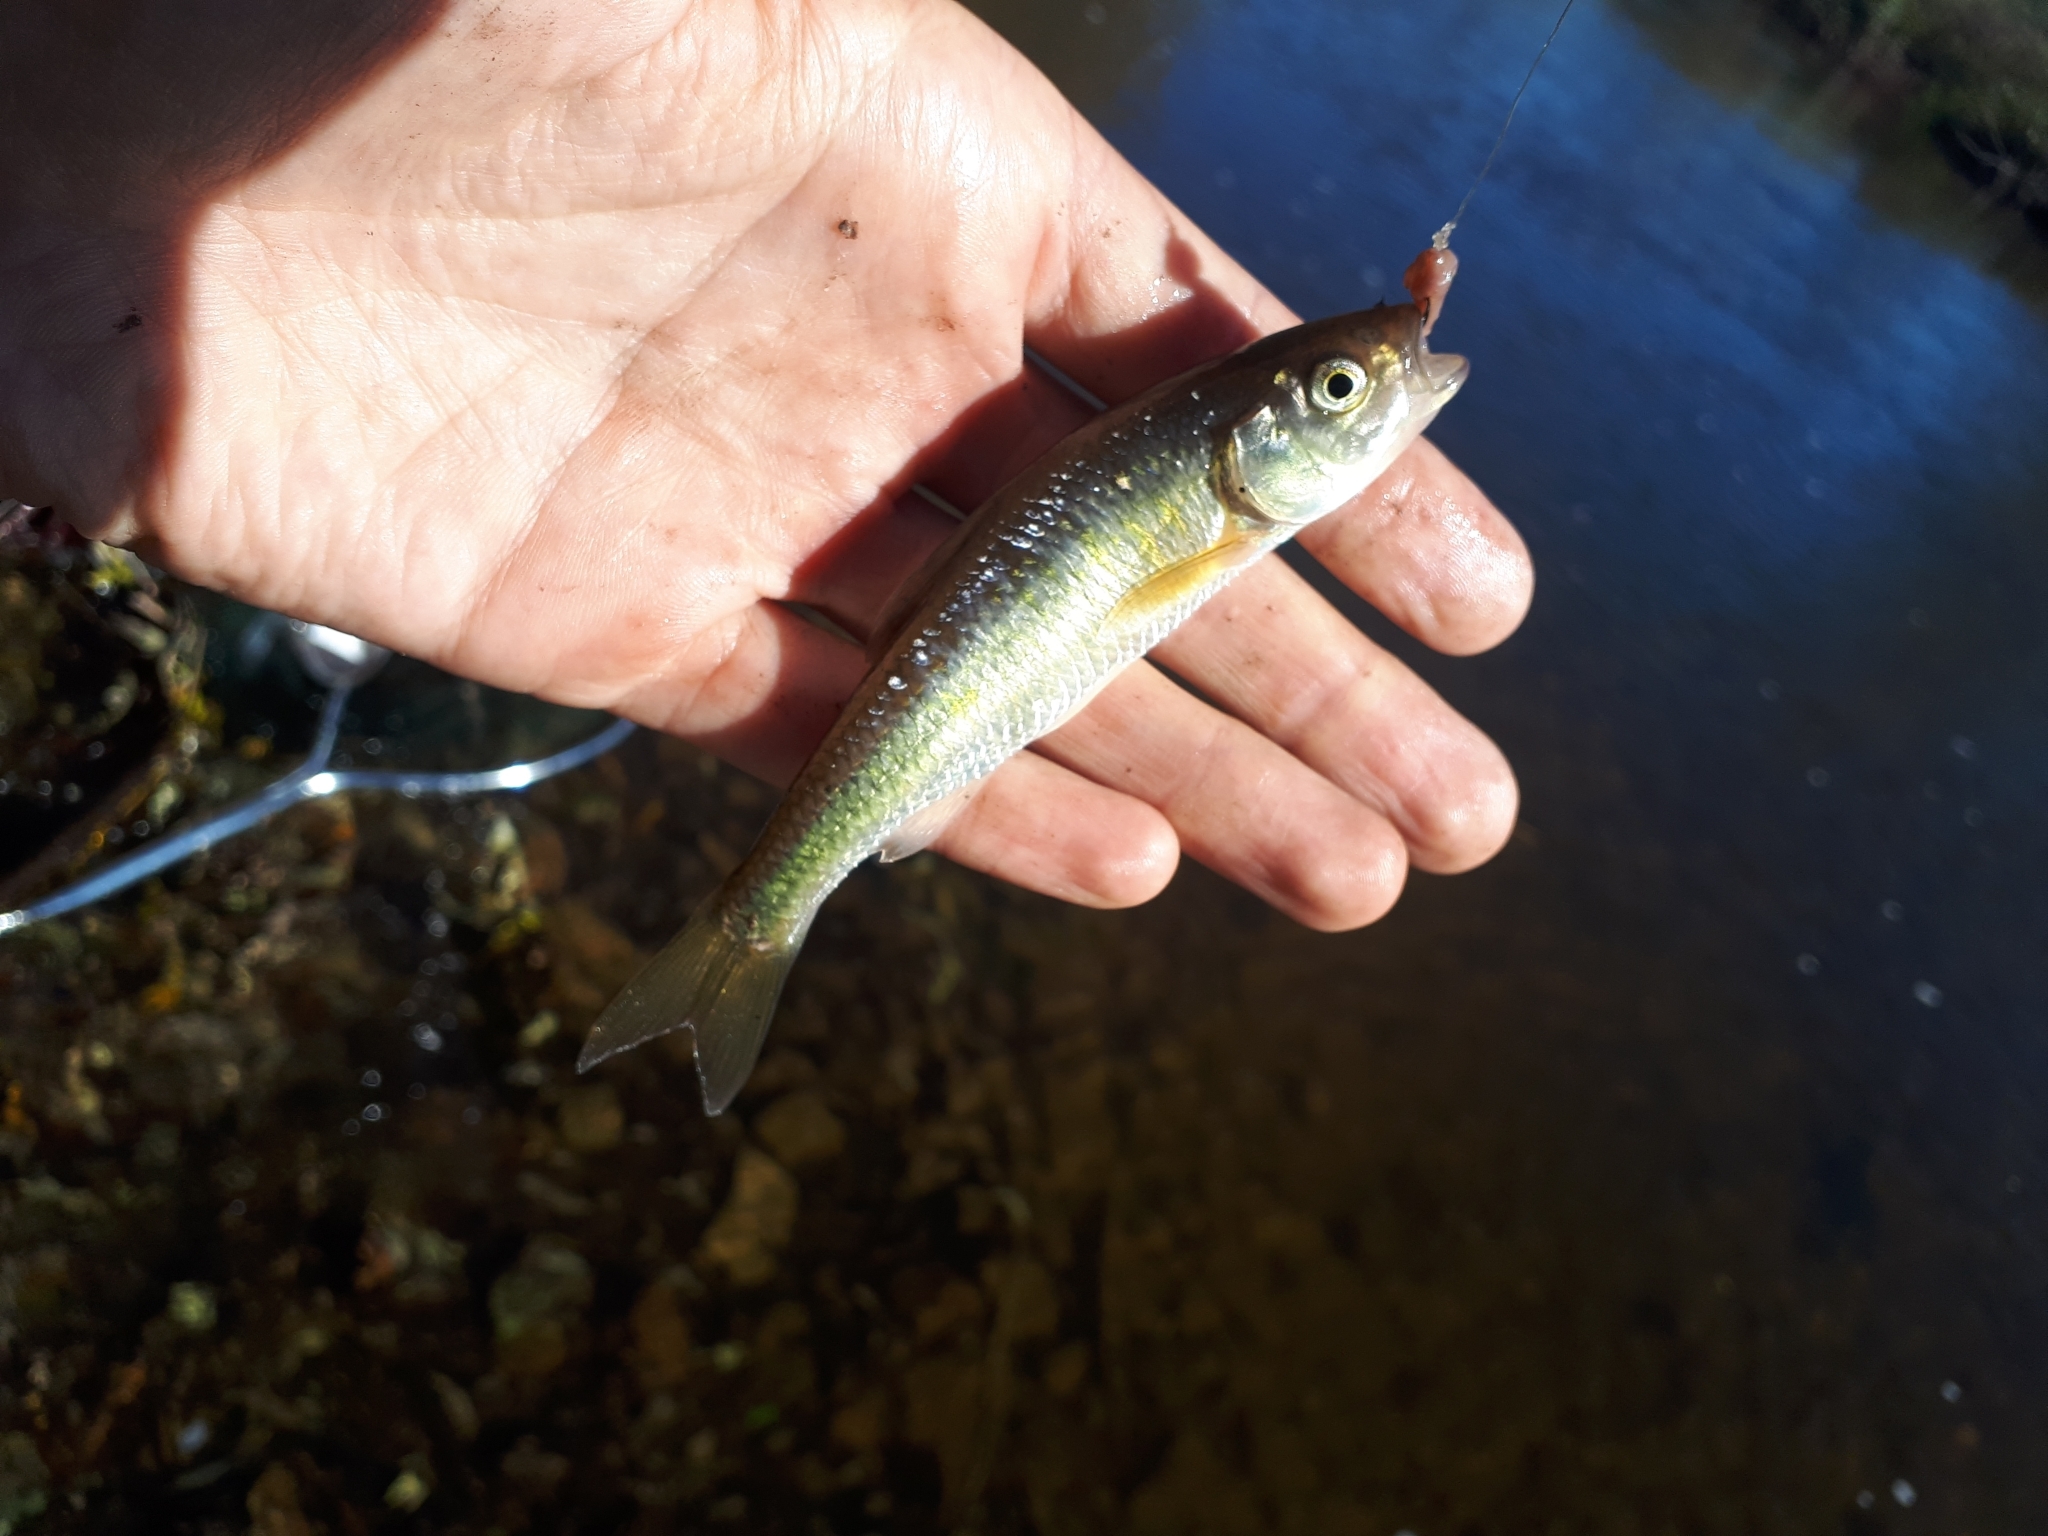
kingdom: Animalia
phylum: Chordata
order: Cypriniformes
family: Cyprinidae
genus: Luxilus
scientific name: Luxilus cornutus
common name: Common shiner
